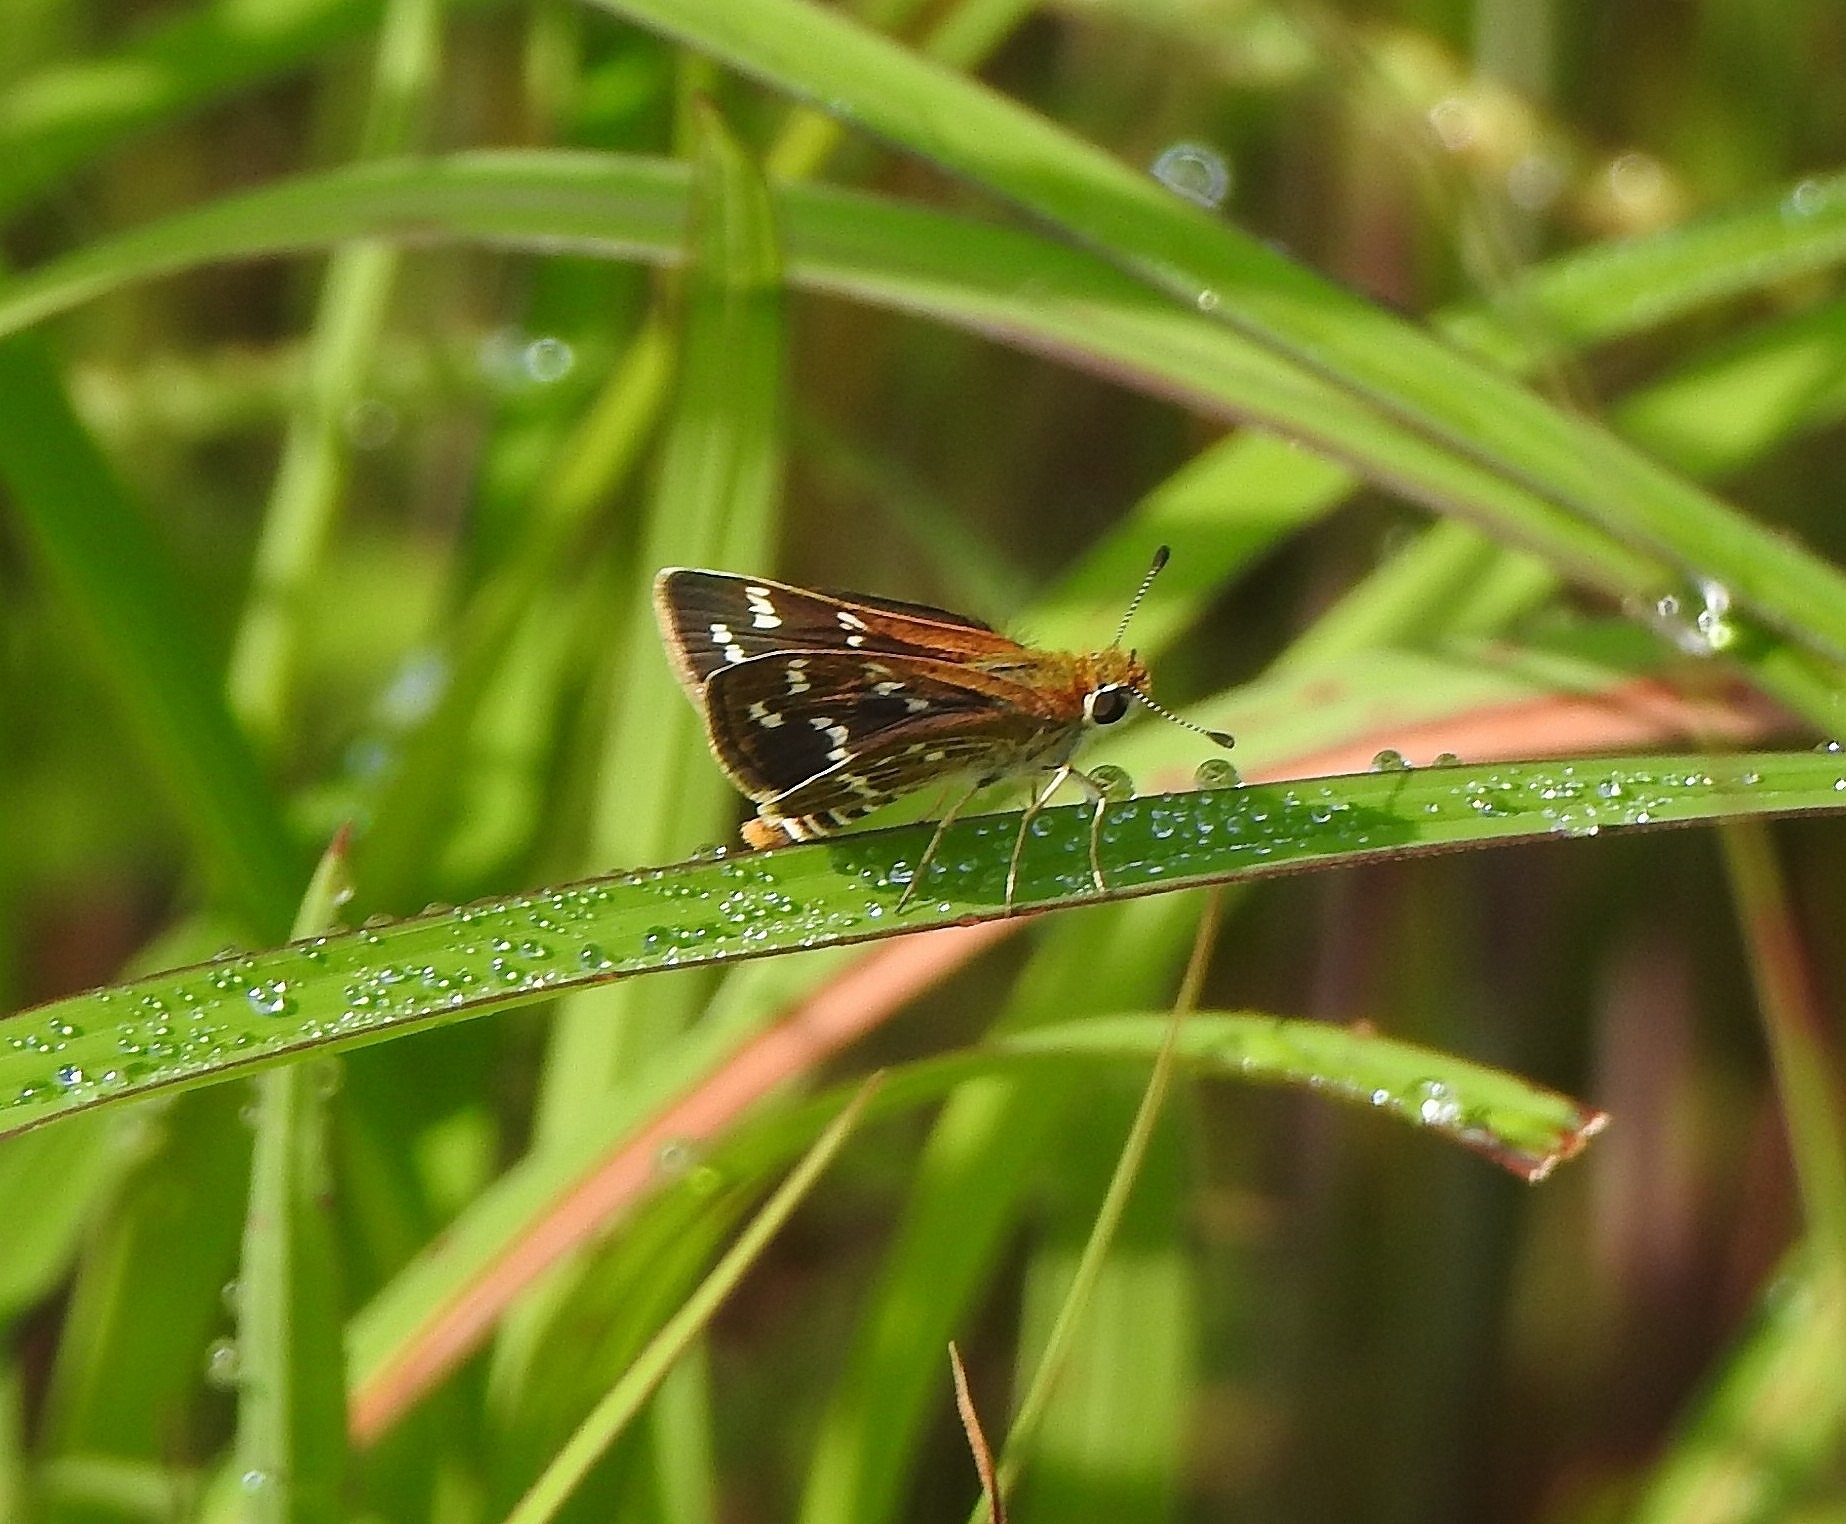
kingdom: Animalia
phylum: Arthropoda
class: Insecta
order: Lepidoptera
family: Hesperiidae
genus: Taractrocera
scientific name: Taractrocera maevius
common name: Common grass-dart
